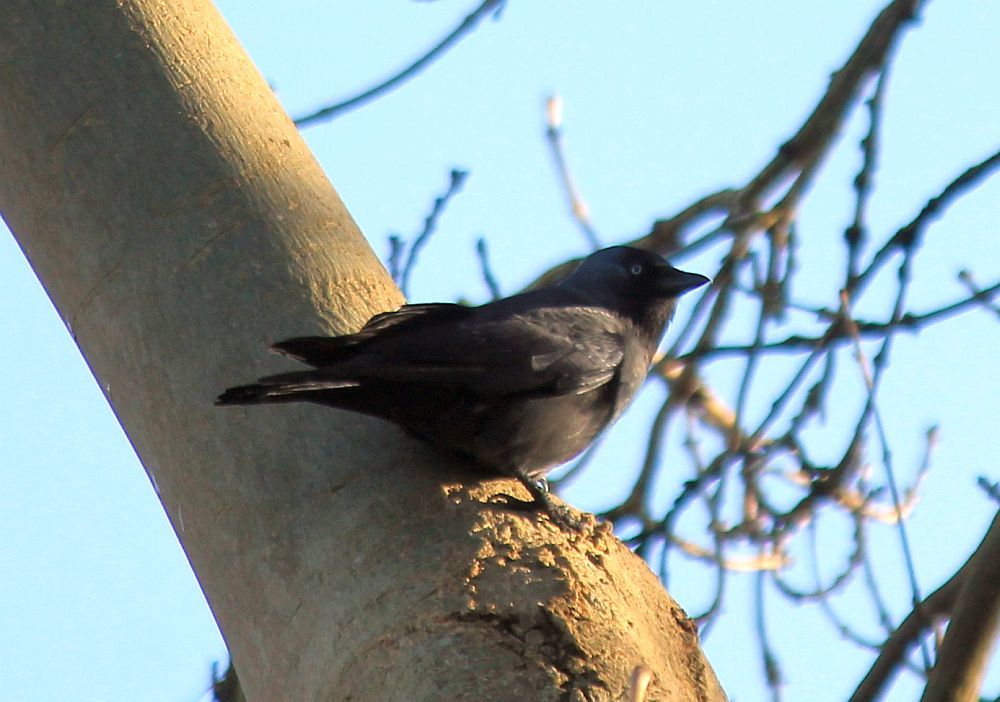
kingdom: Animalia
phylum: Chordata
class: Aves
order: Passeriformes
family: Corvidae
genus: Coloeus
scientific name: Coloeus monedula
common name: Western jackdaw
